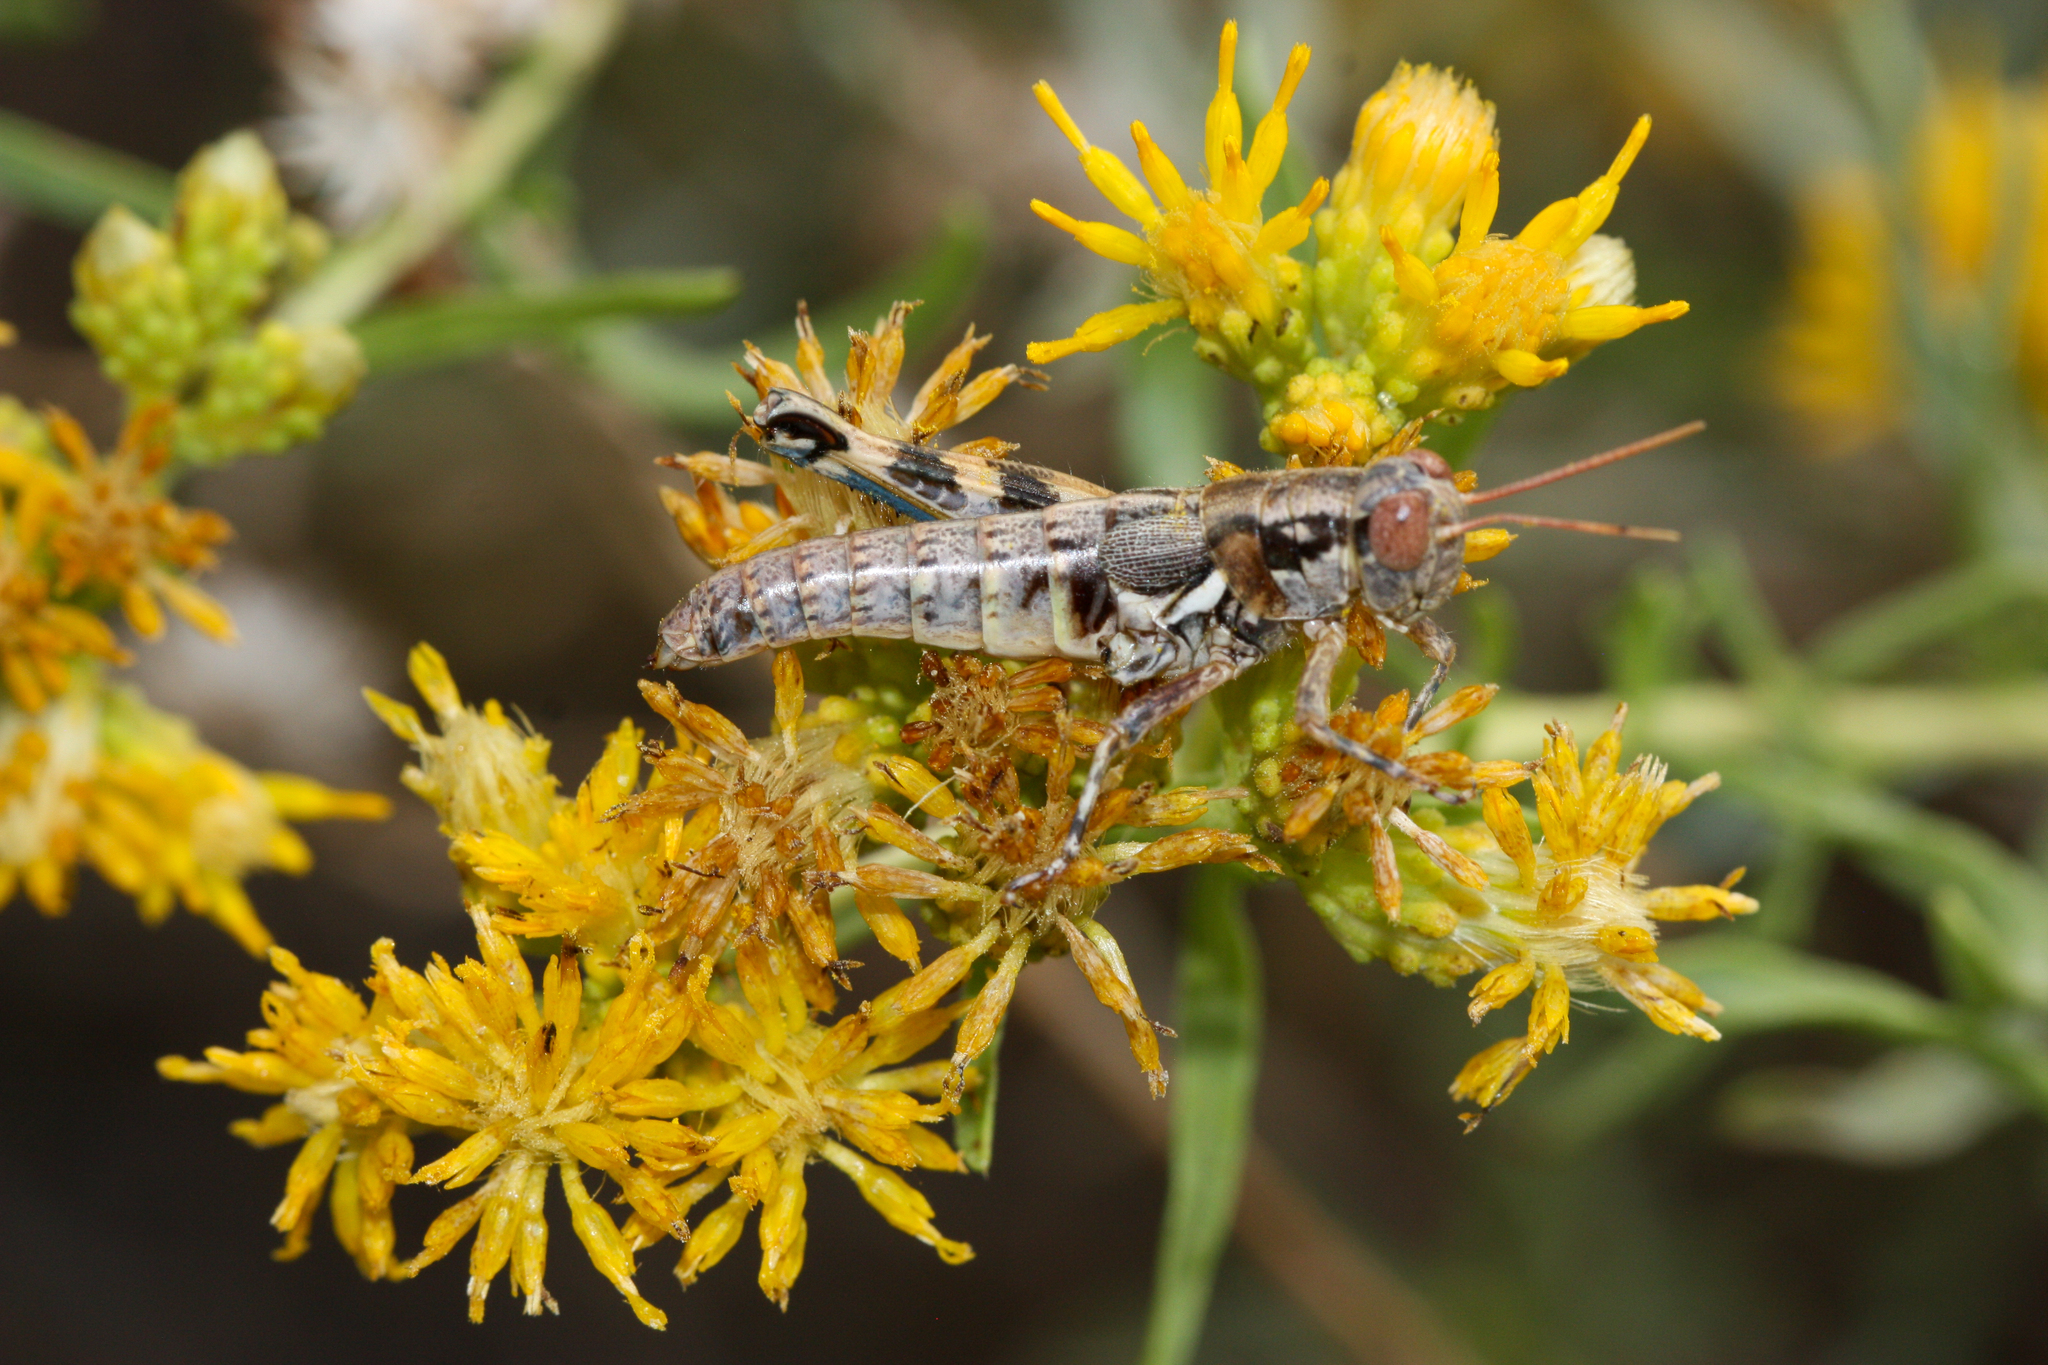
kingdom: Animalia
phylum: Arthropoda
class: Insecta
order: Orthoptera
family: Acrididae
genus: Melanoplus
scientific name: Melanoplus aridus
